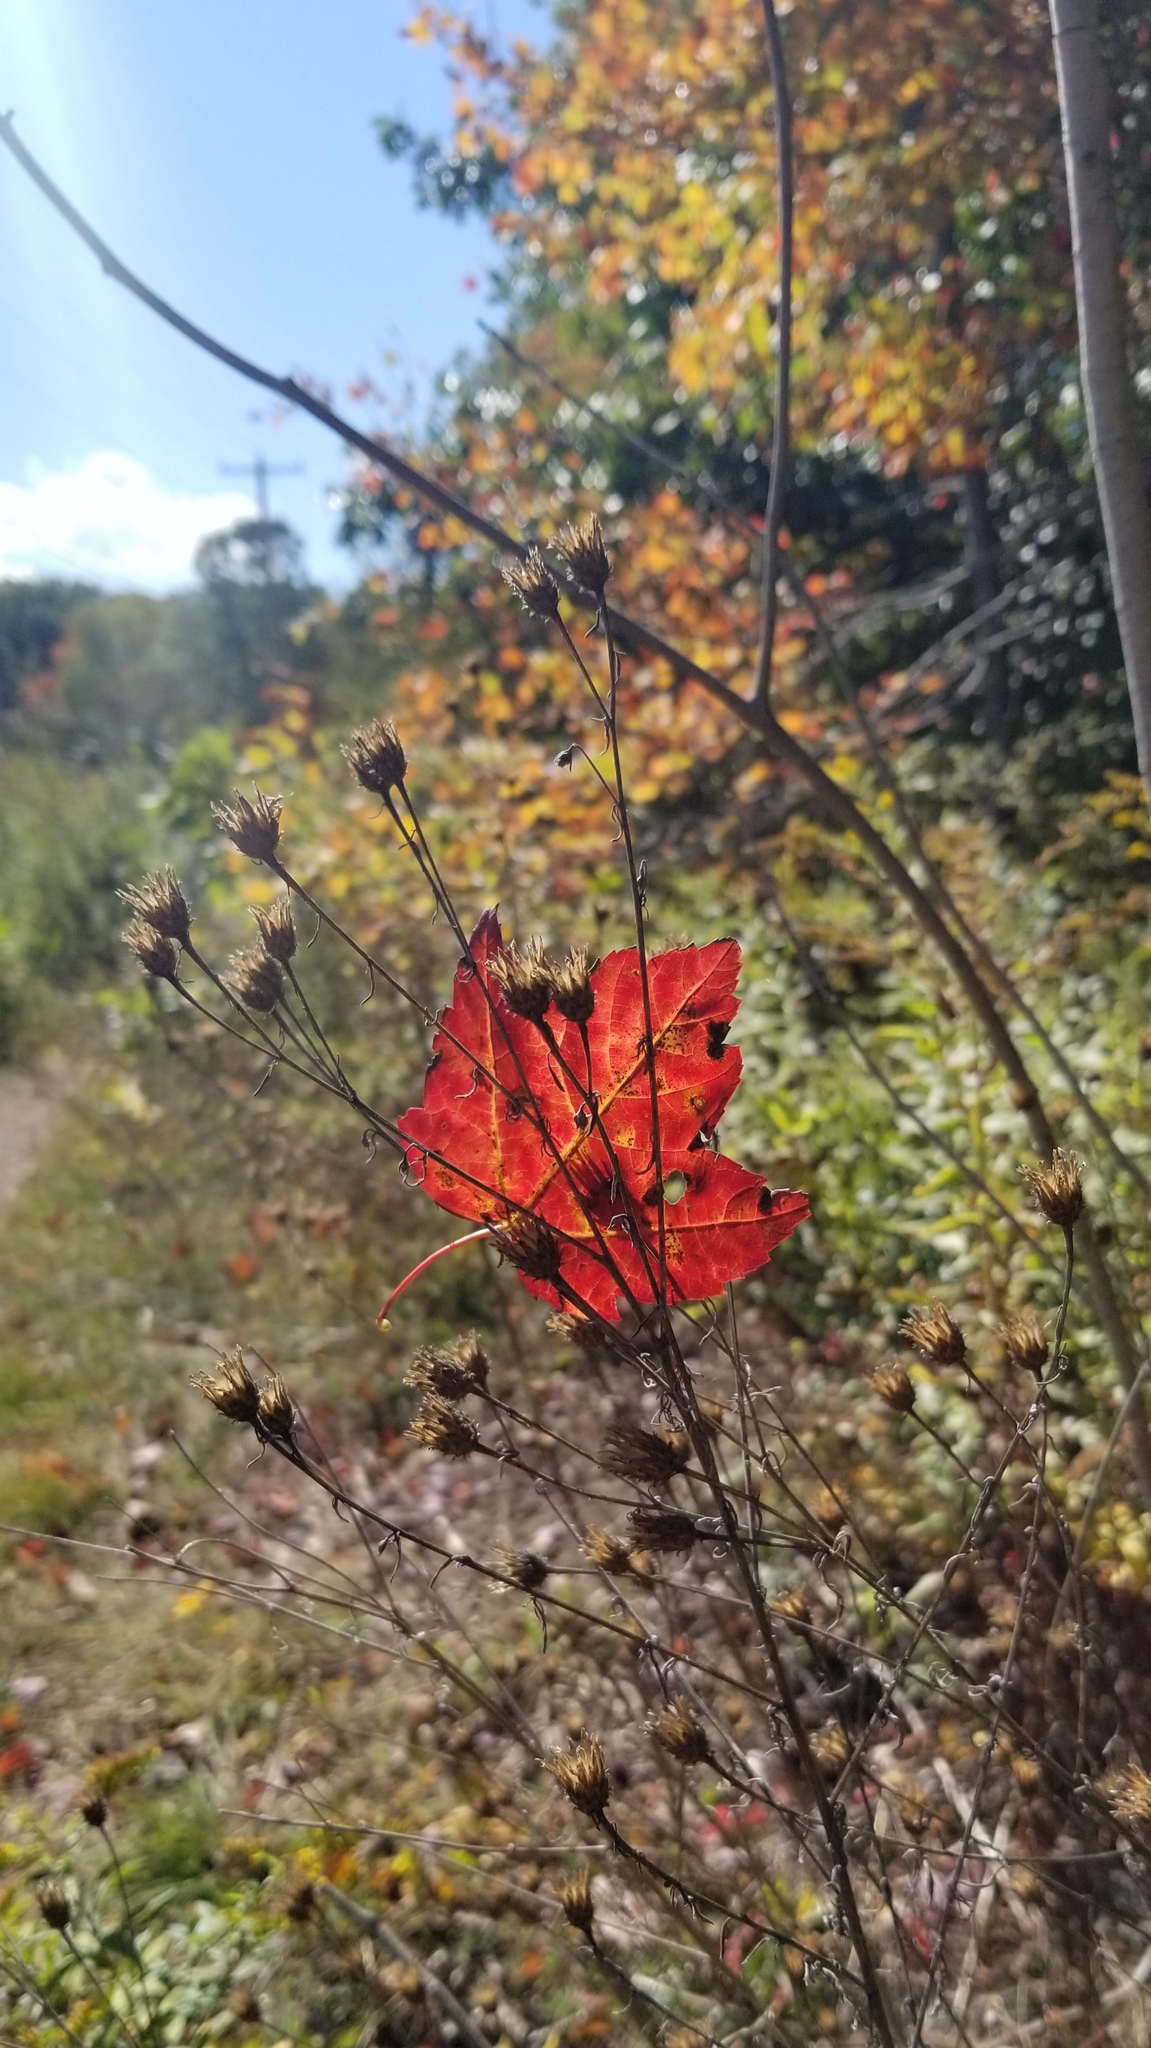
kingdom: Plantae
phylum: Tracheophyta
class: Magnoliopsida
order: Sapindales
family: Sapindaceae
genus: Acer
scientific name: Acer rubrum
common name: Red maple
